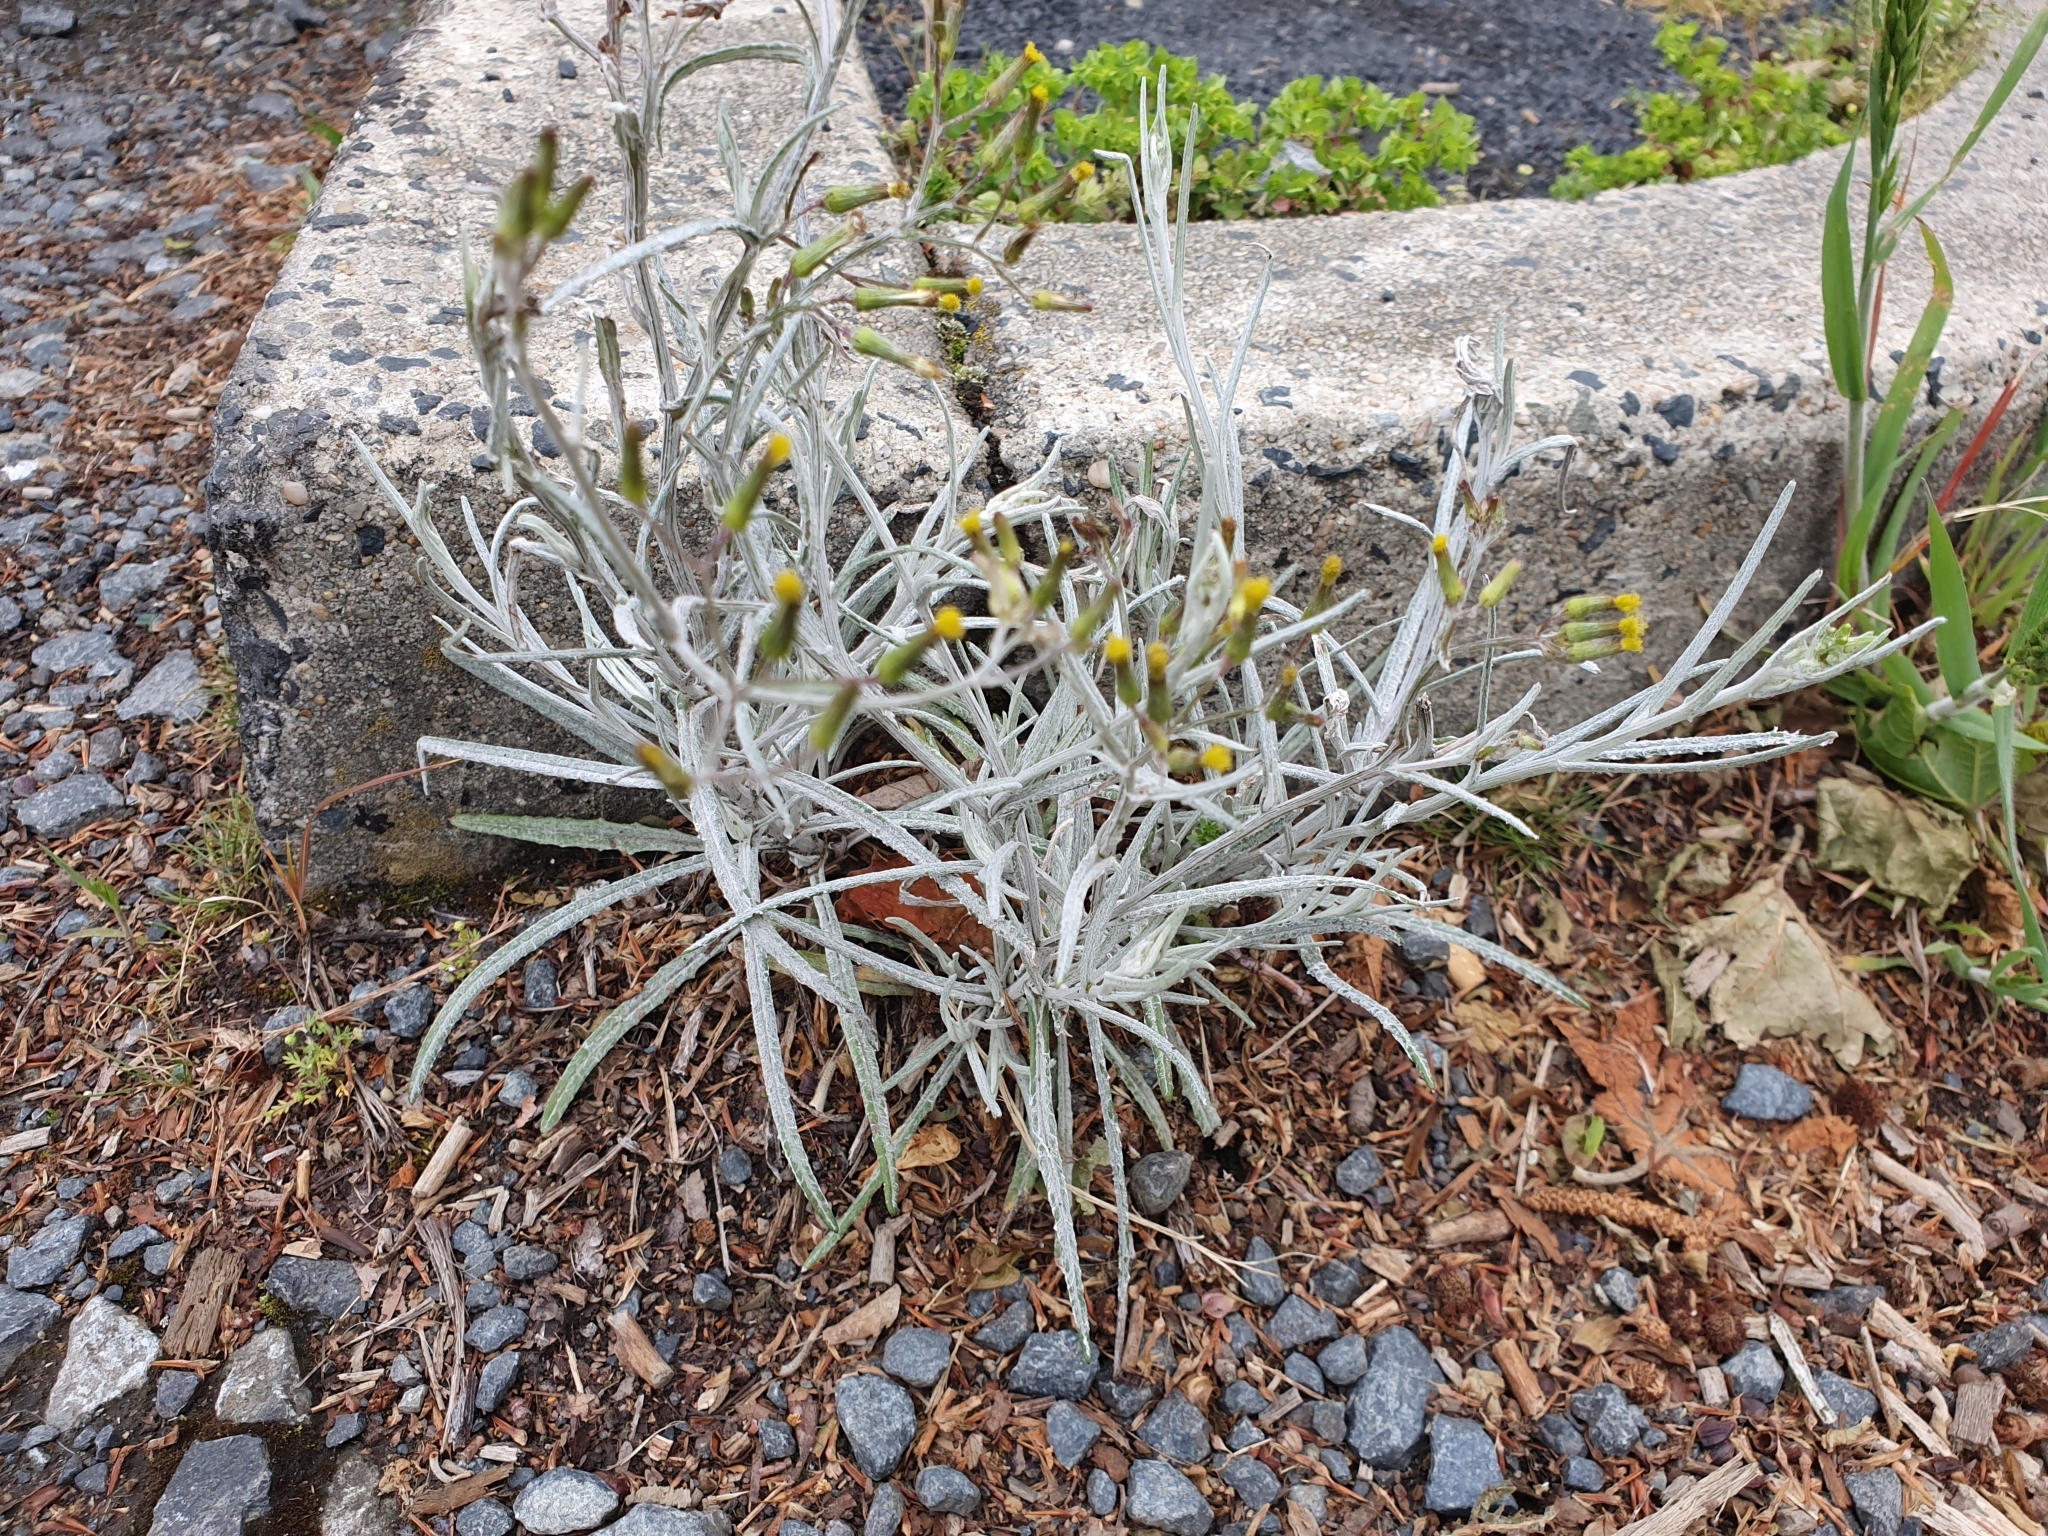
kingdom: Plantae
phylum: Tracheophyta
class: Magnoliopsida
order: Asterales
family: Asteraceae
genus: Senecio
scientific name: Senecio quadridentatus
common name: Cotton fireweed
